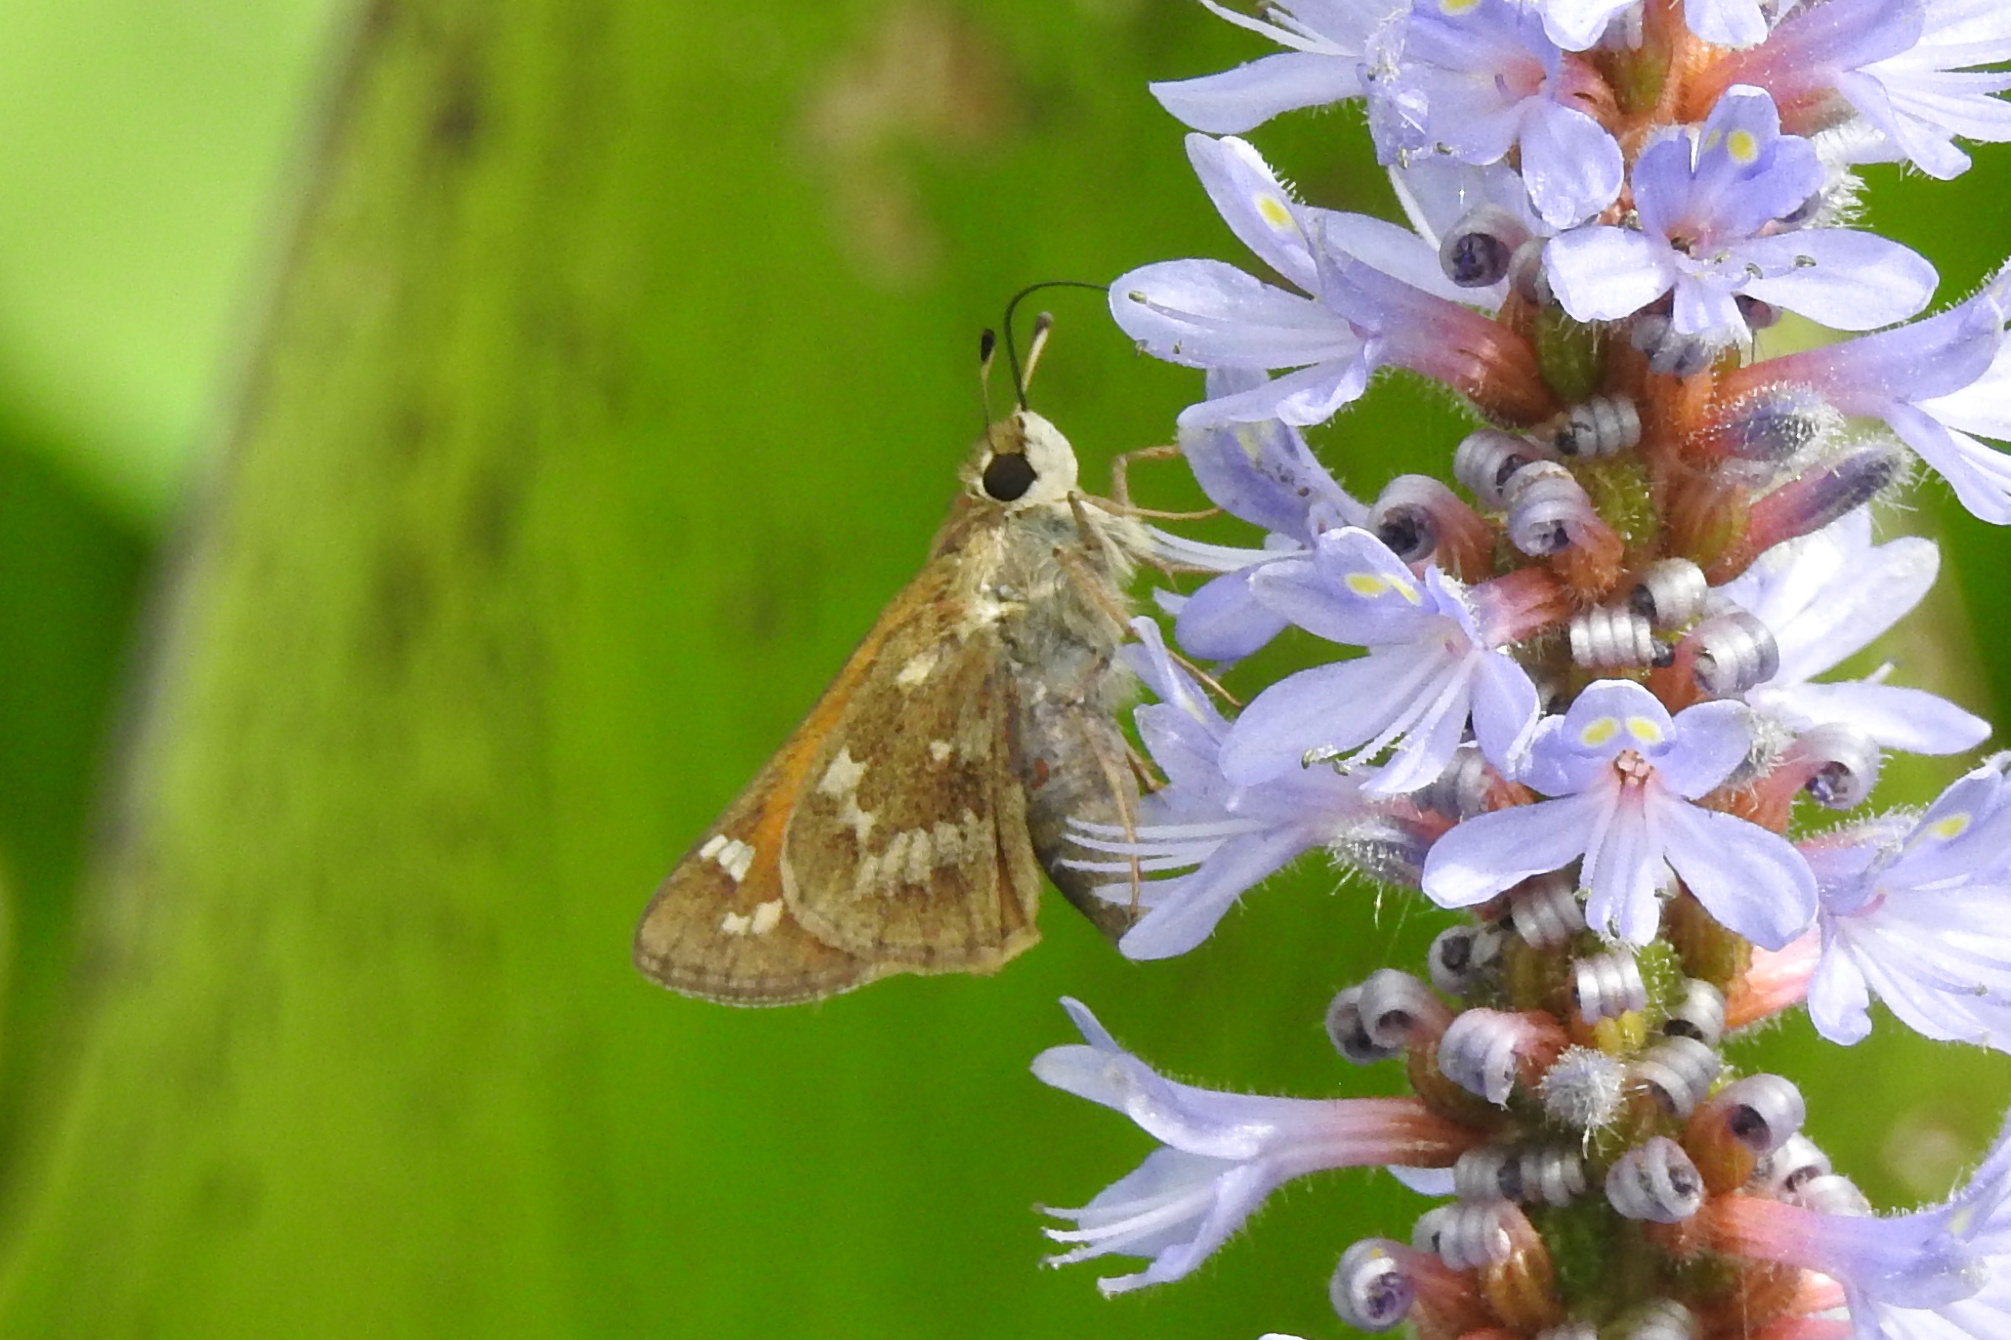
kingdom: Animalia
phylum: Arthropoda
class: Insecta
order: Lepidoptera
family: Hesperiidae
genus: Atalopedes
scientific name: Atalopedes
